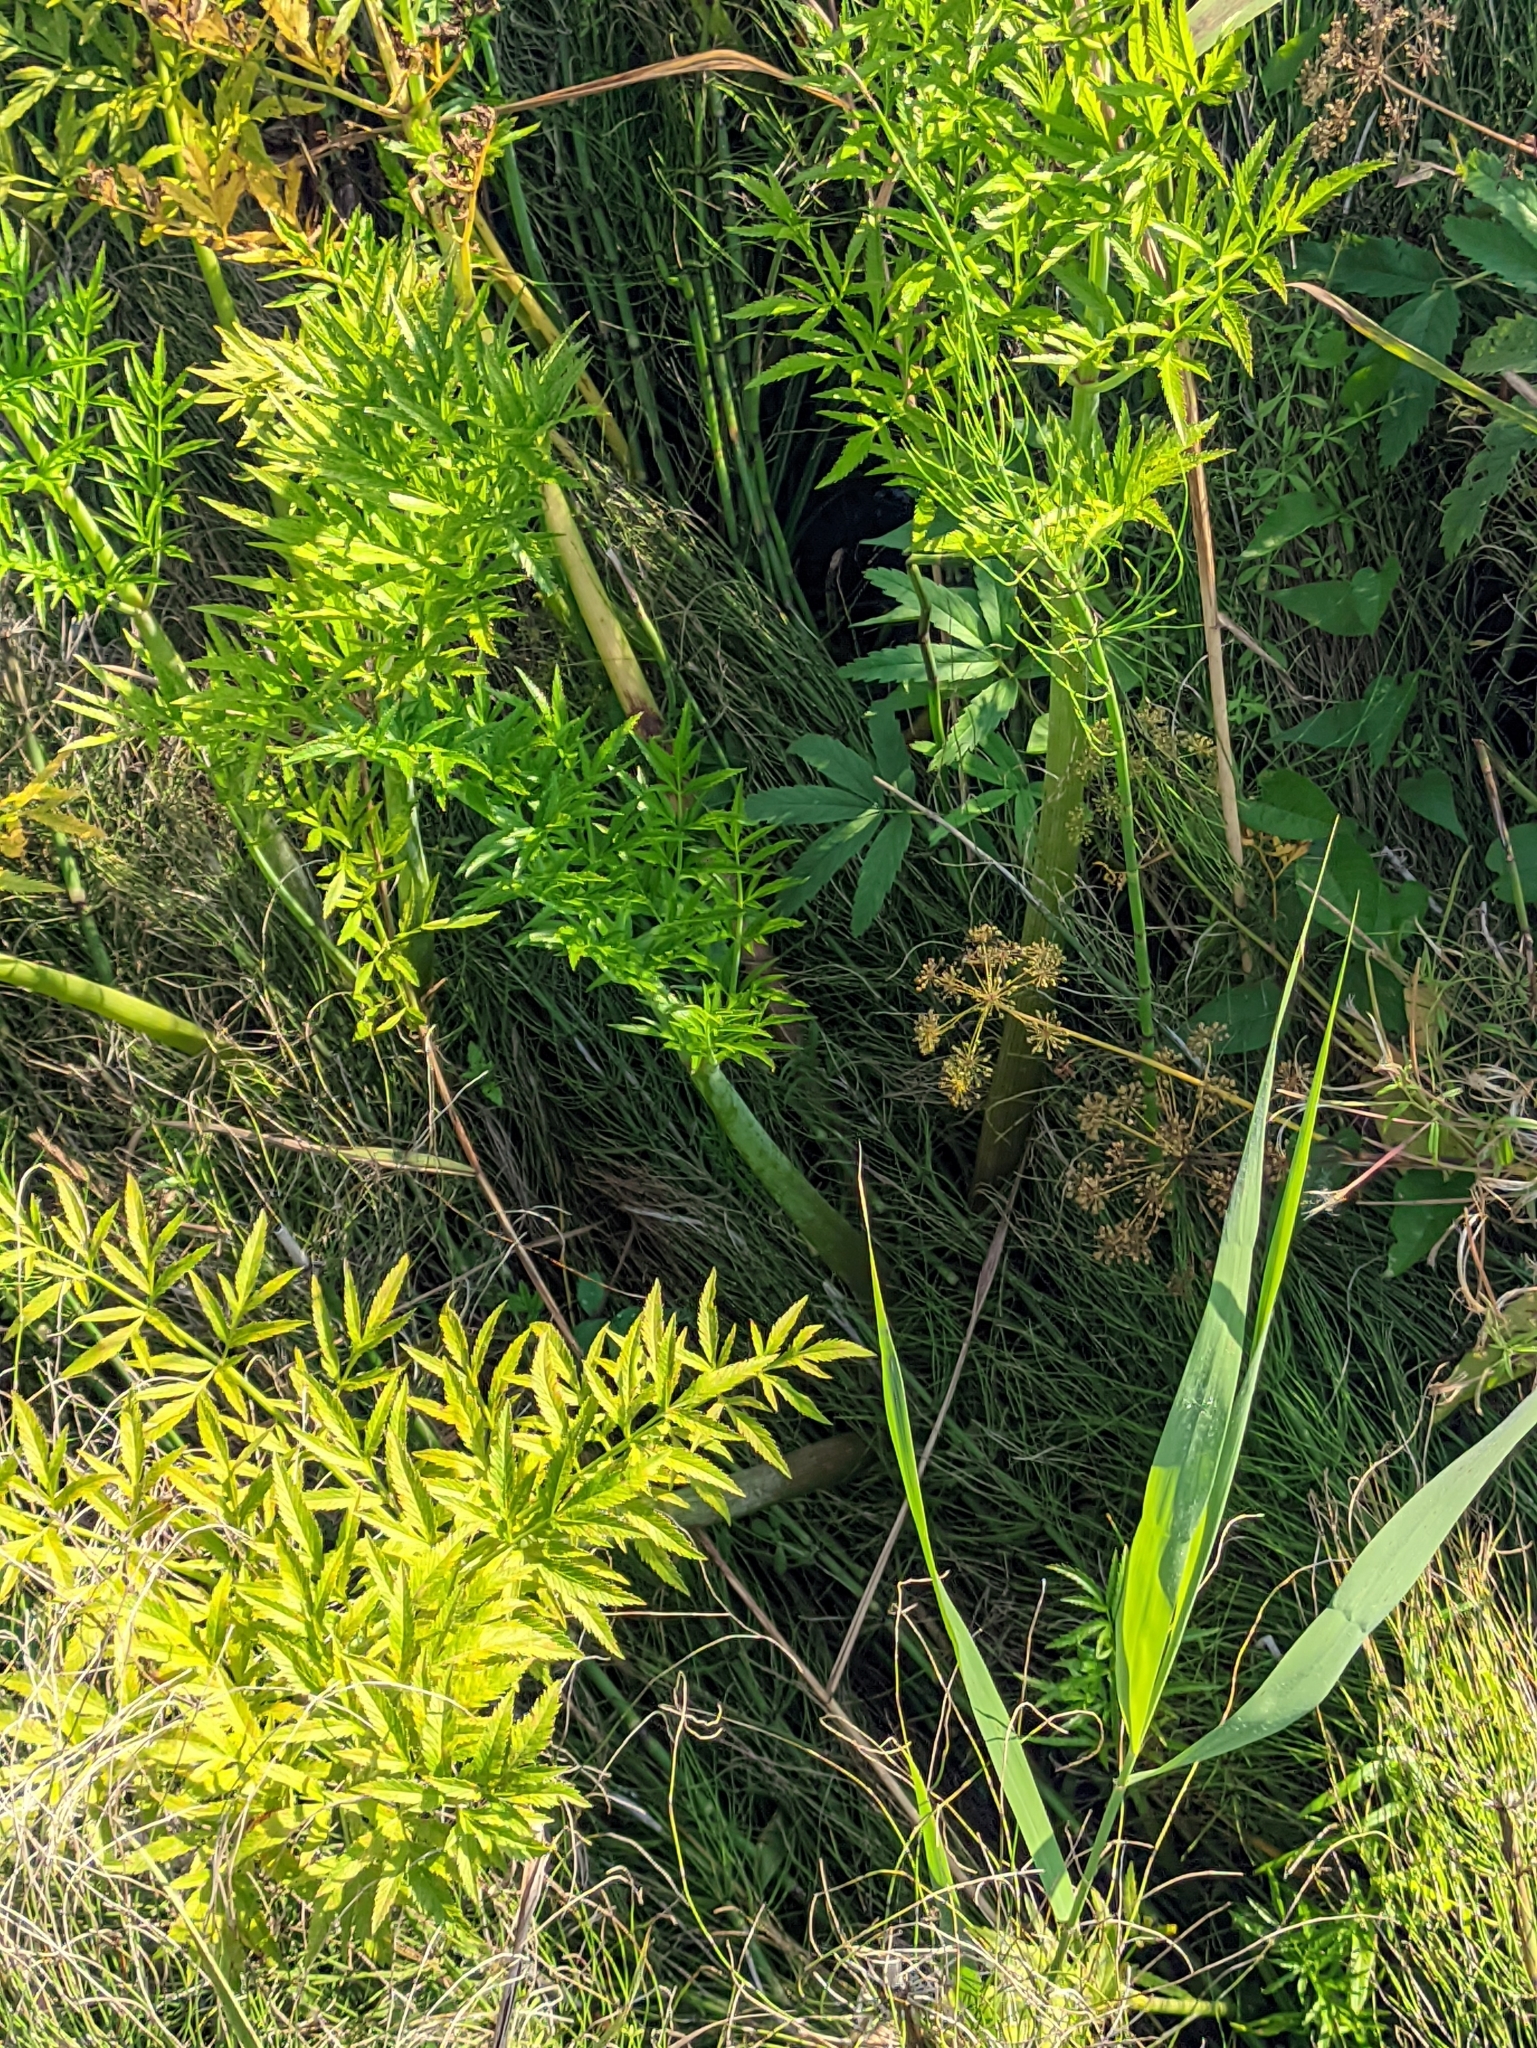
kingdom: Plantae
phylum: Tracheophyta
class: Magnoliopsida
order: Apiales
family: Apiaceae
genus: Cicuta
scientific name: Cicuta virosa
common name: Cowbane
